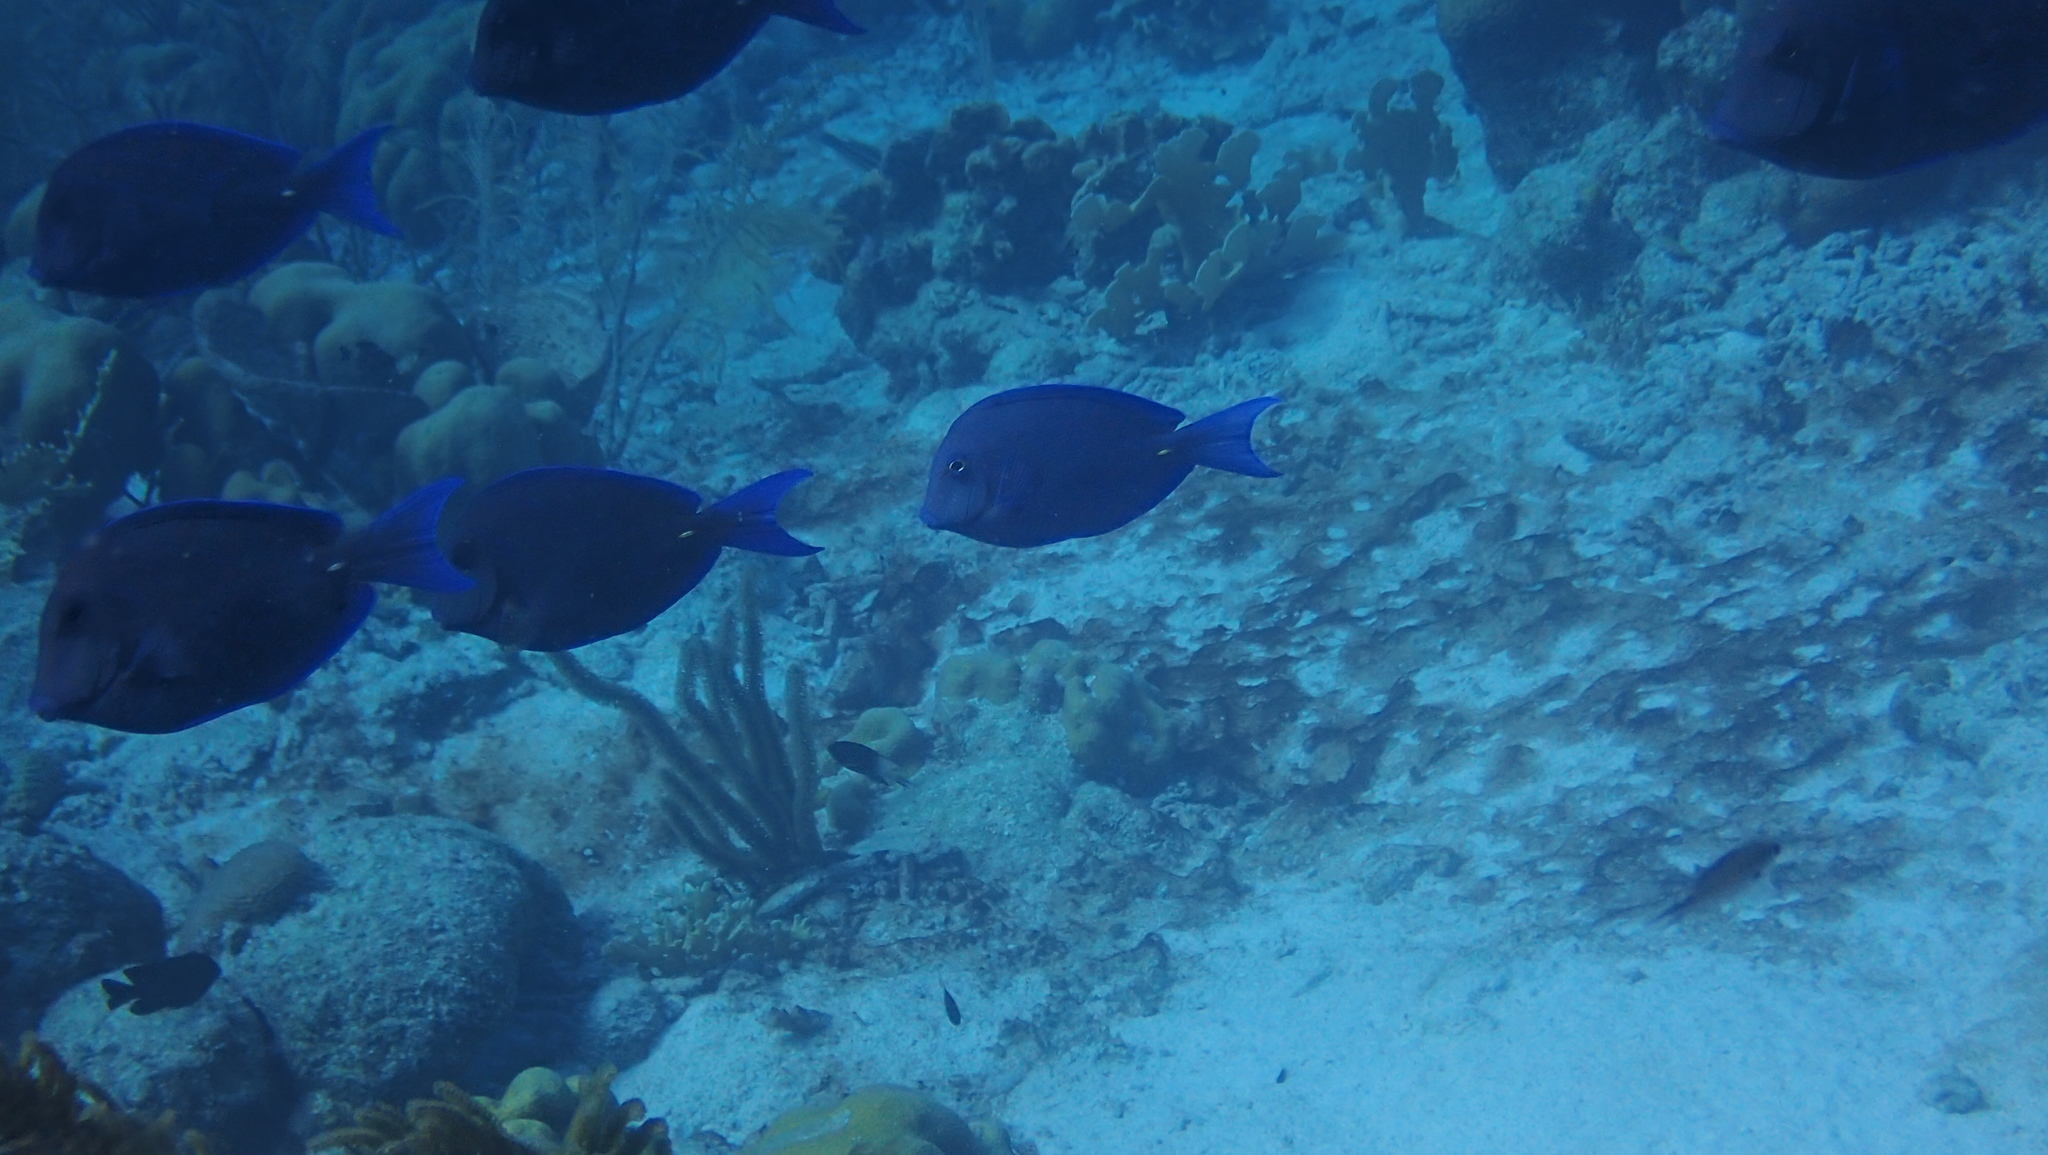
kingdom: Animalia
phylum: Chordata
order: Perciformes
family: Acanthuridae
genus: Acanthurus
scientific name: Acanthurus coeruleus
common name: Blue tang
